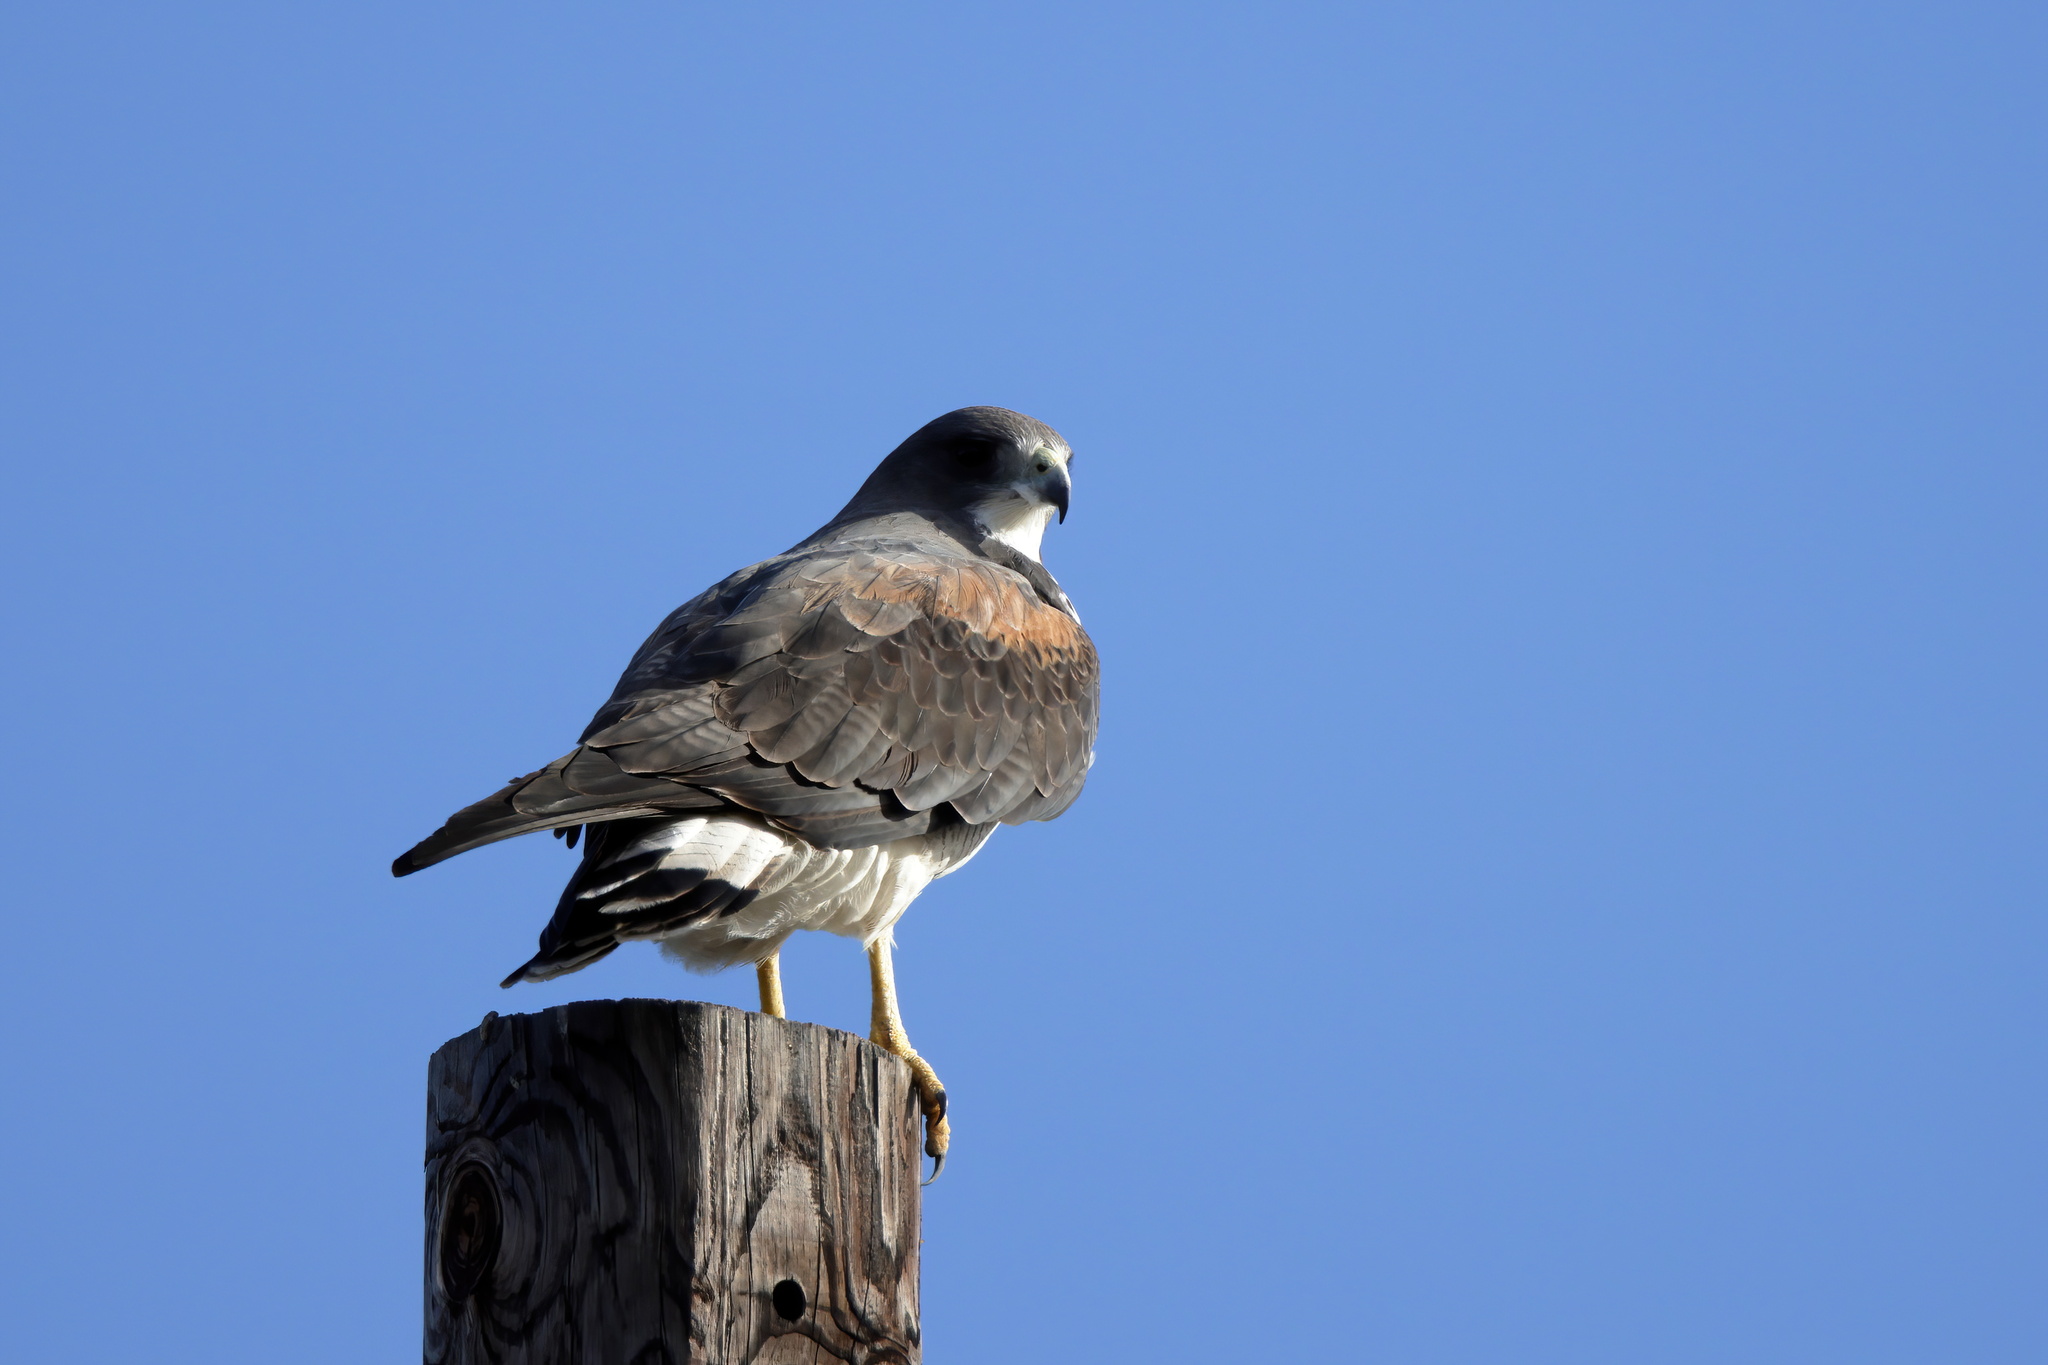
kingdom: Animalia
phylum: Chordata
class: Aves
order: Accipitriformes
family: Accipitridae
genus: Buteo
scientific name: Buteo albicaudatus
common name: White-tailed hawk
